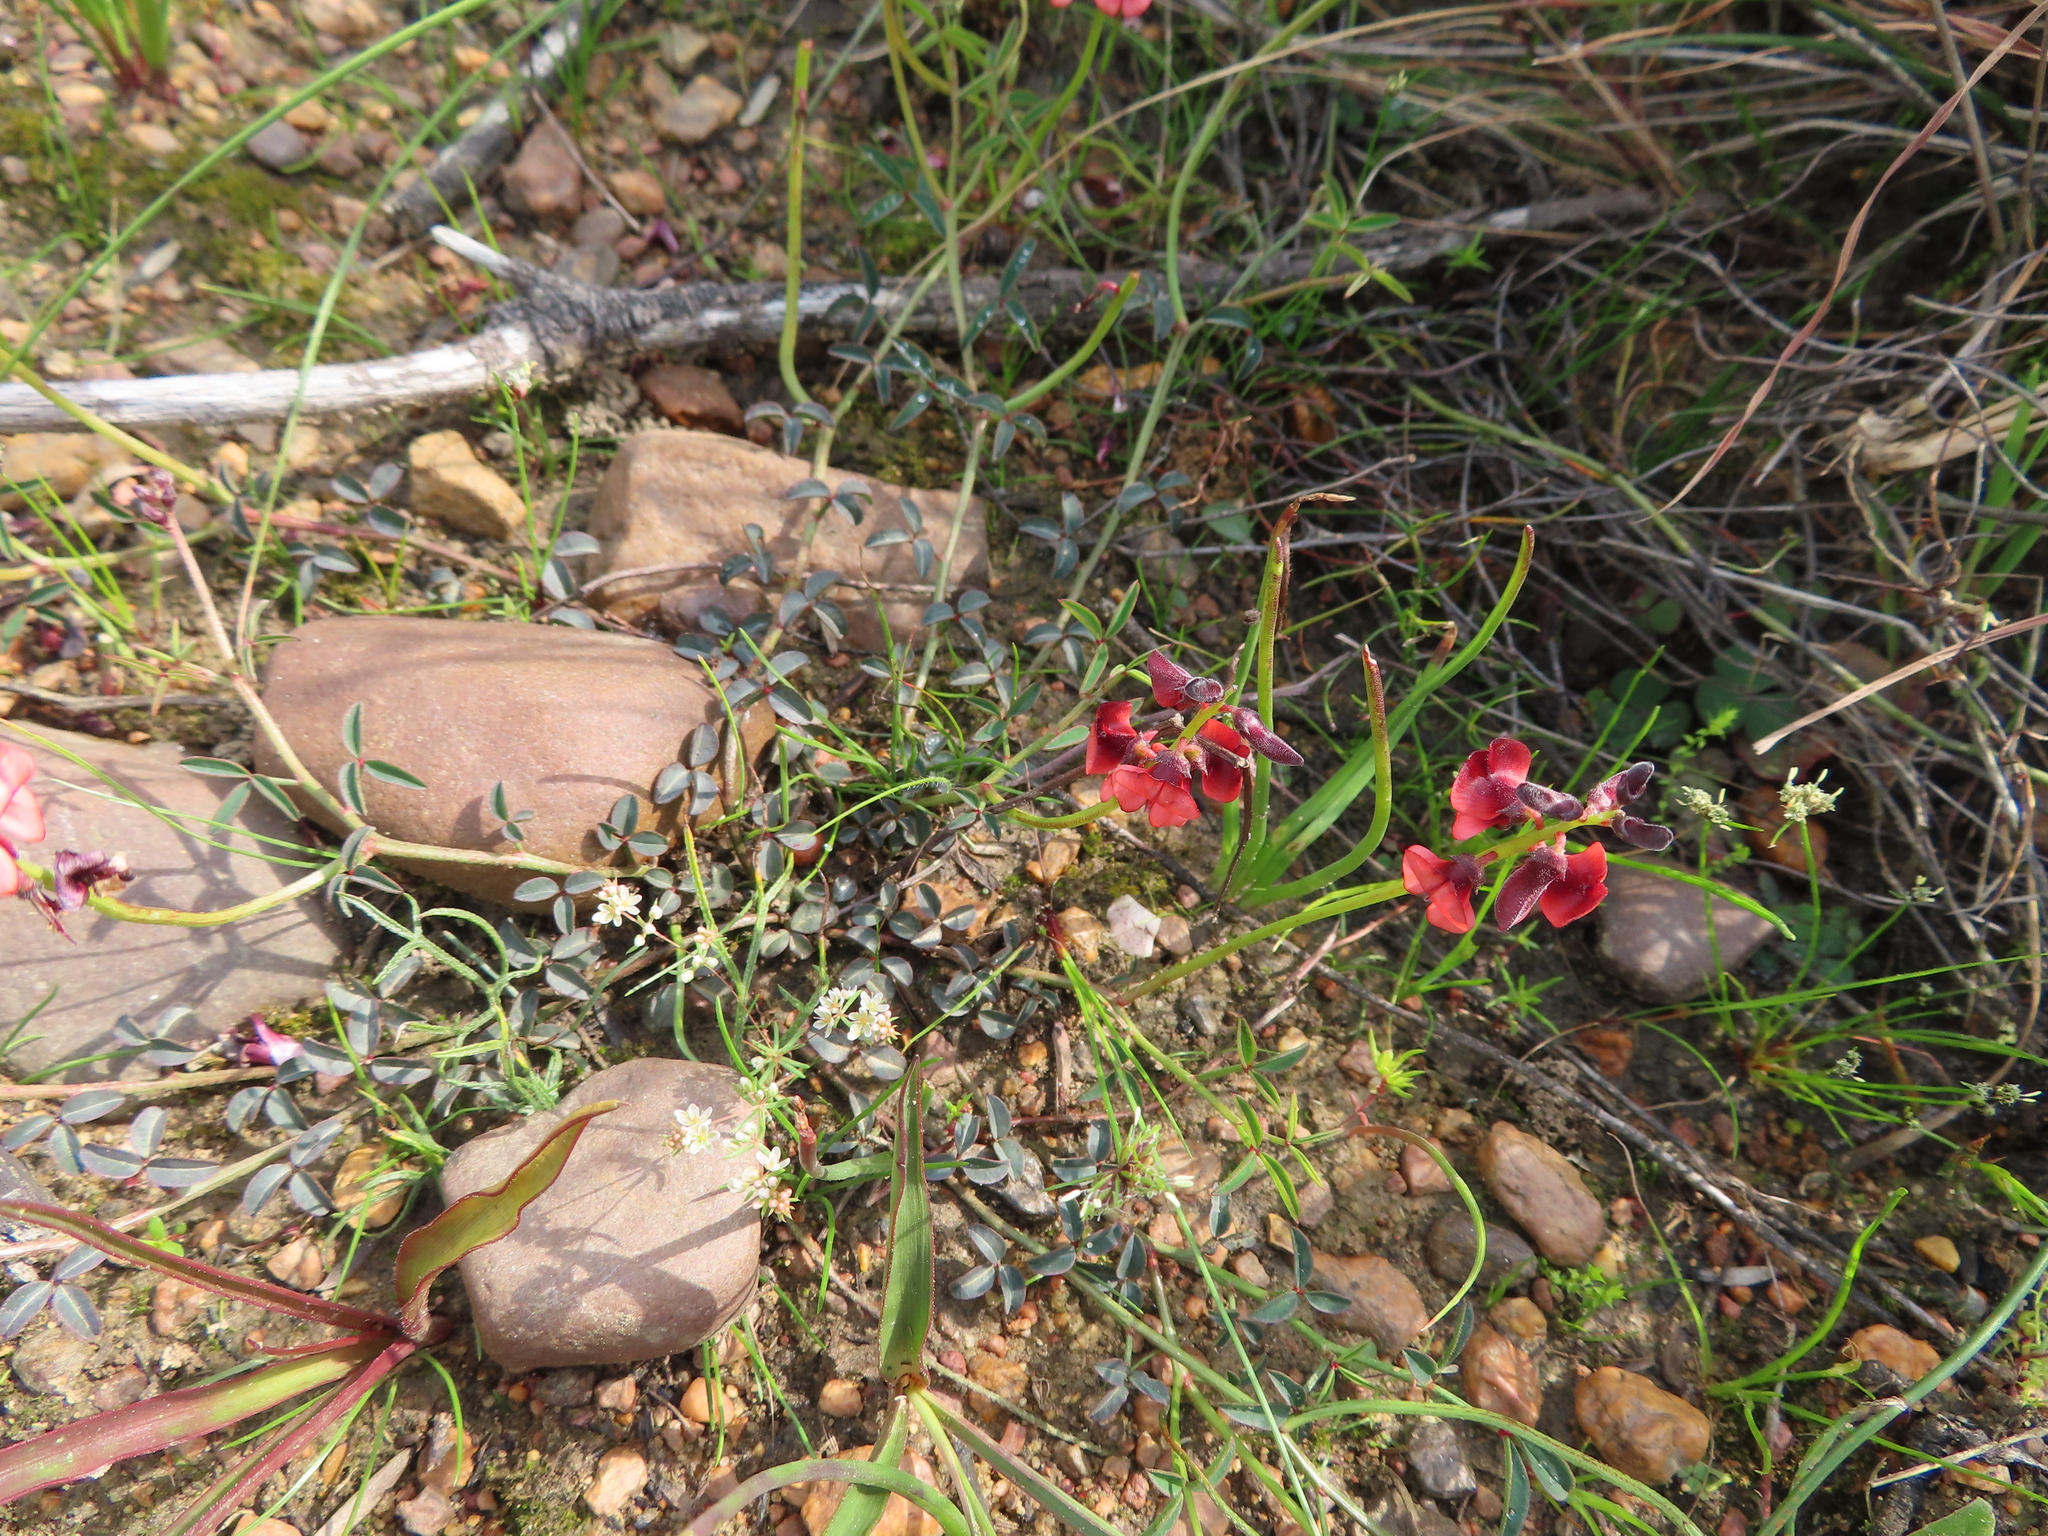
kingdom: Plantae
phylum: Tracheophyta
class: Magnoliopsida
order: Fabales
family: Fabaceae
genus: Indigofera
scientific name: Indigofera heterophylla
